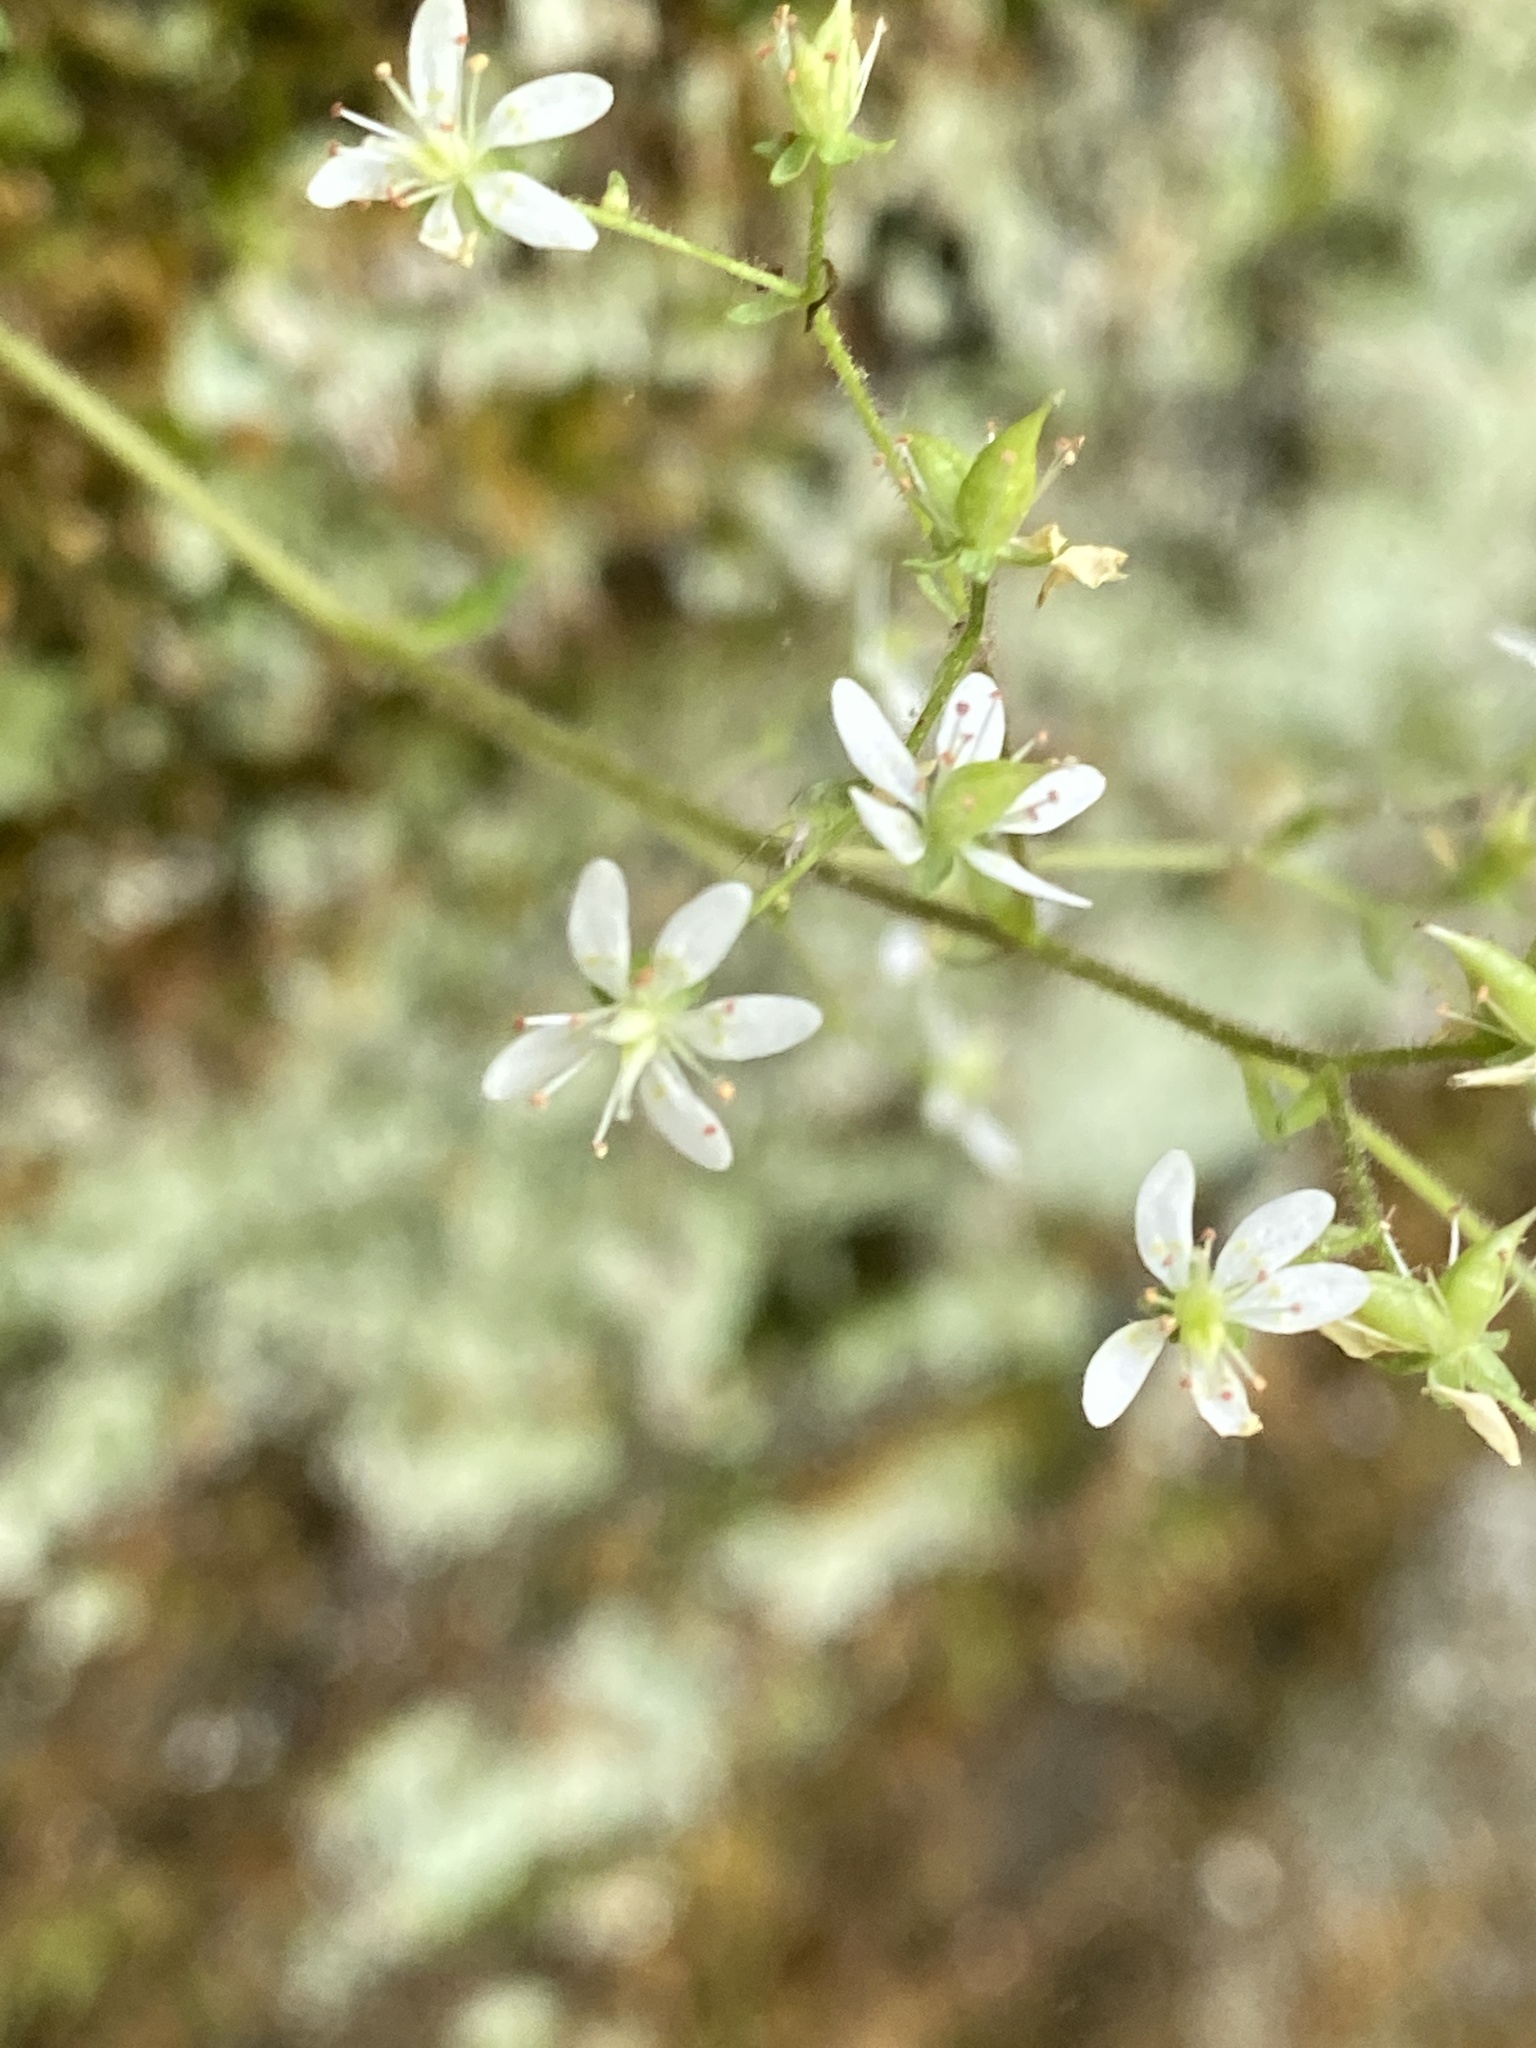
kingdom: Plantae
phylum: Tracheophyta
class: Magnoliopsida
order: Saxifragales
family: Saxifragaceae
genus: Micranthes
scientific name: Micranthes careyana
